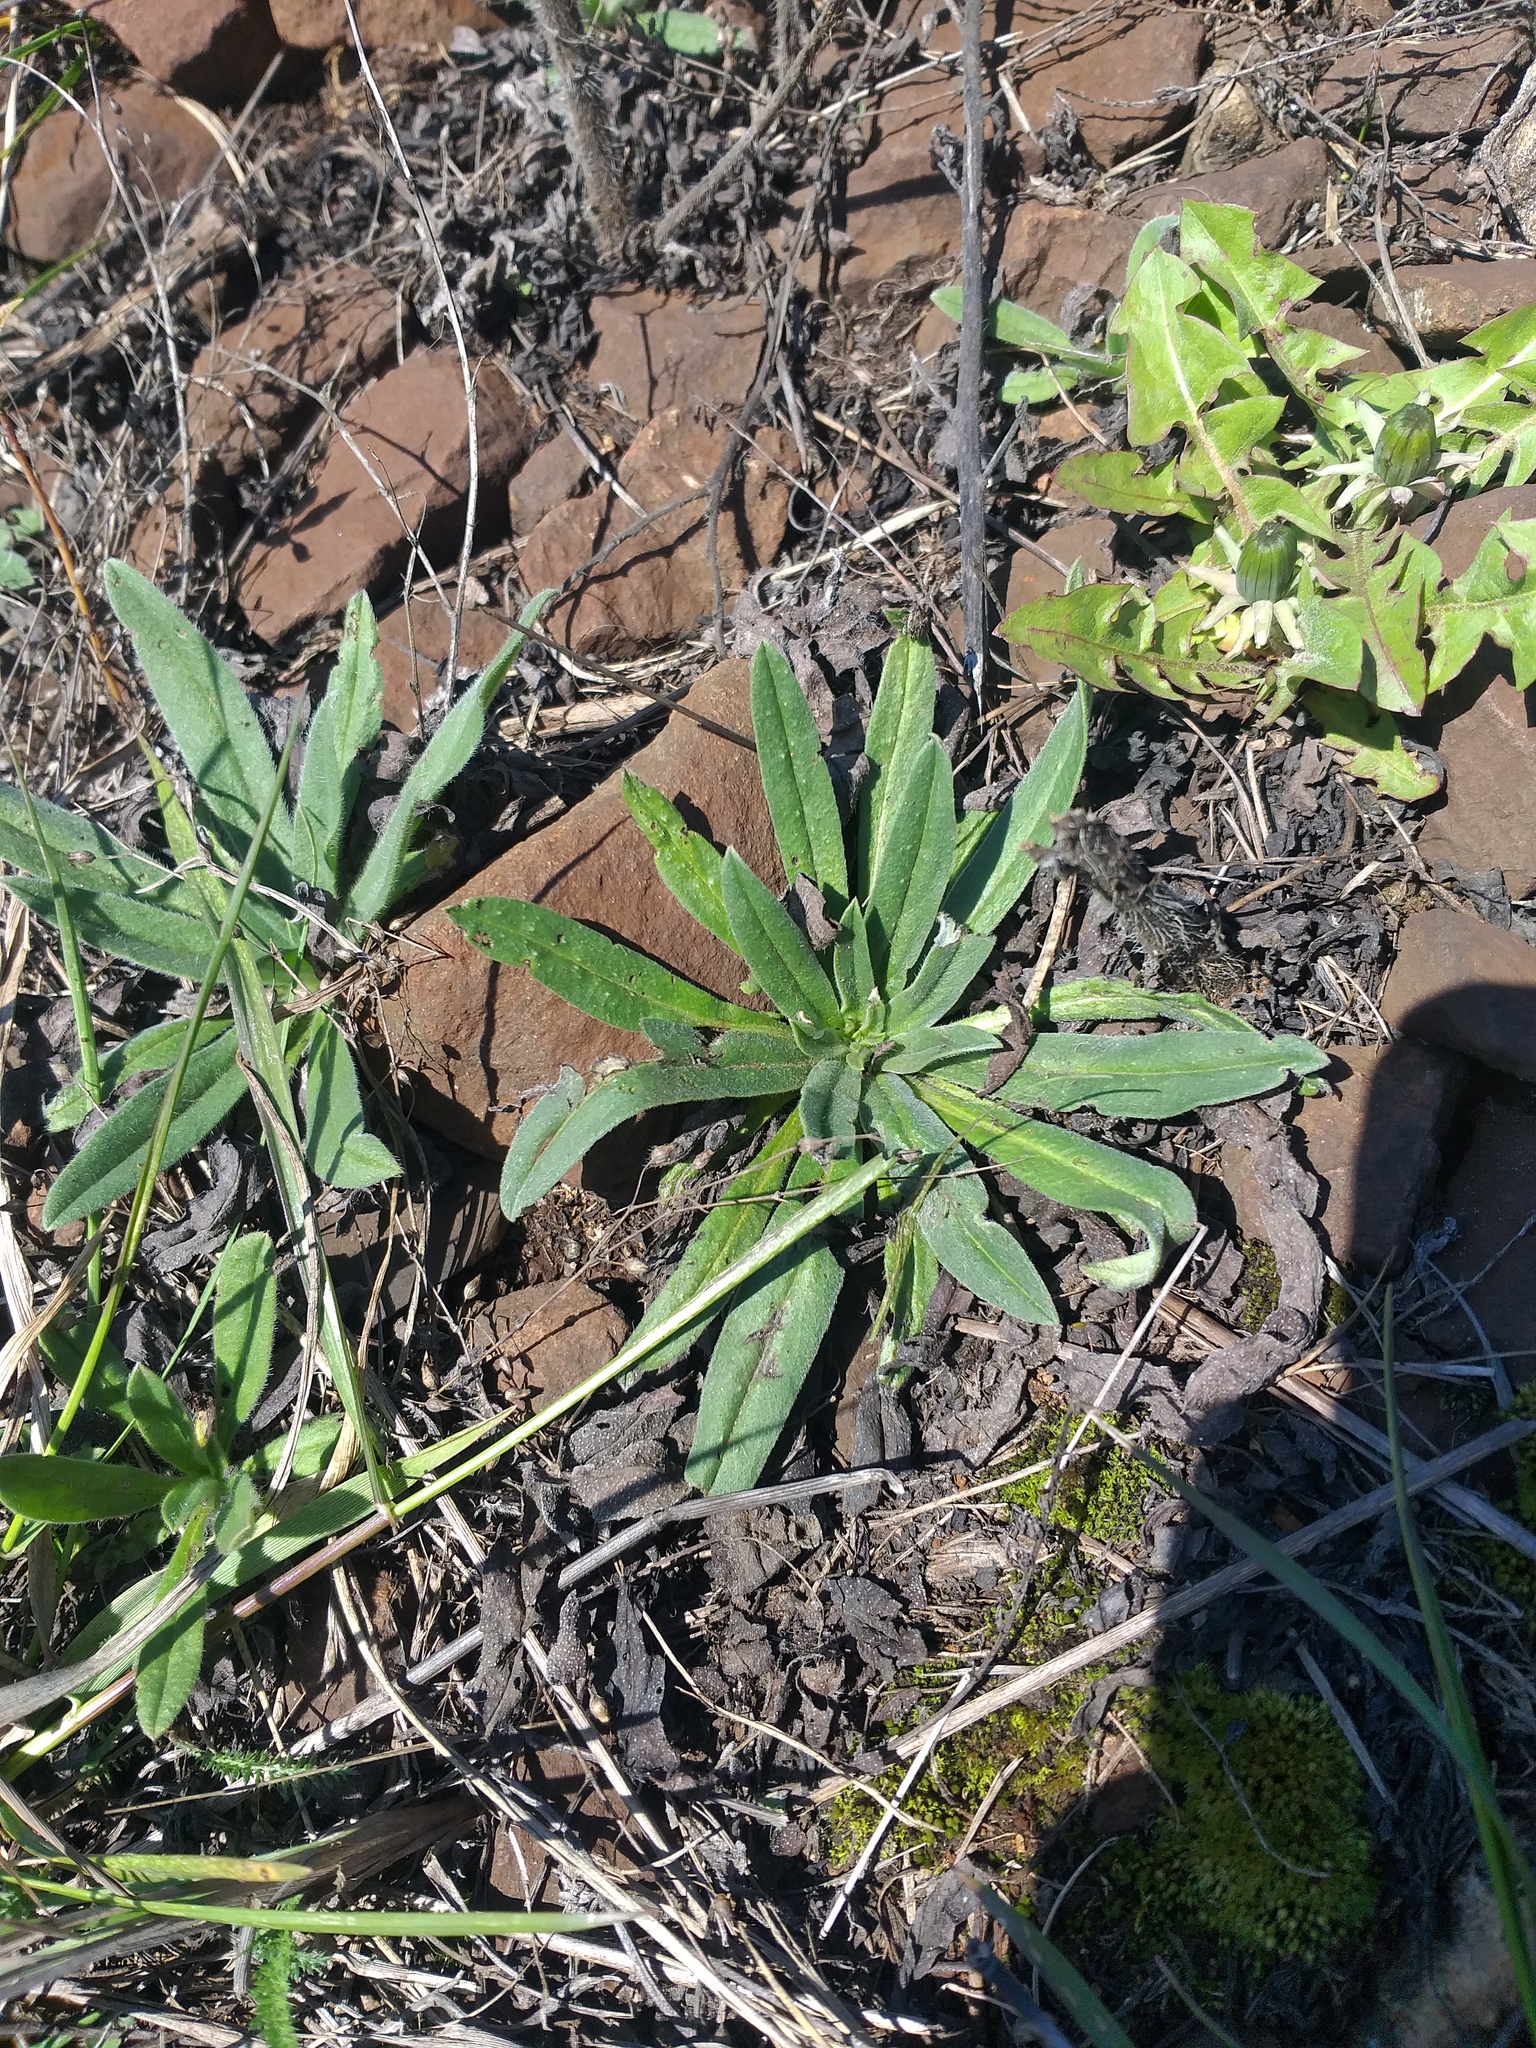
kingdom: Plantae
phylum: Tracheophyta
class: Magnoliopsida
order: Boraginales
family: Boraginaceae
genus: Echium
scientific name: Echium vulgare
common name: Common viper's bugloss
